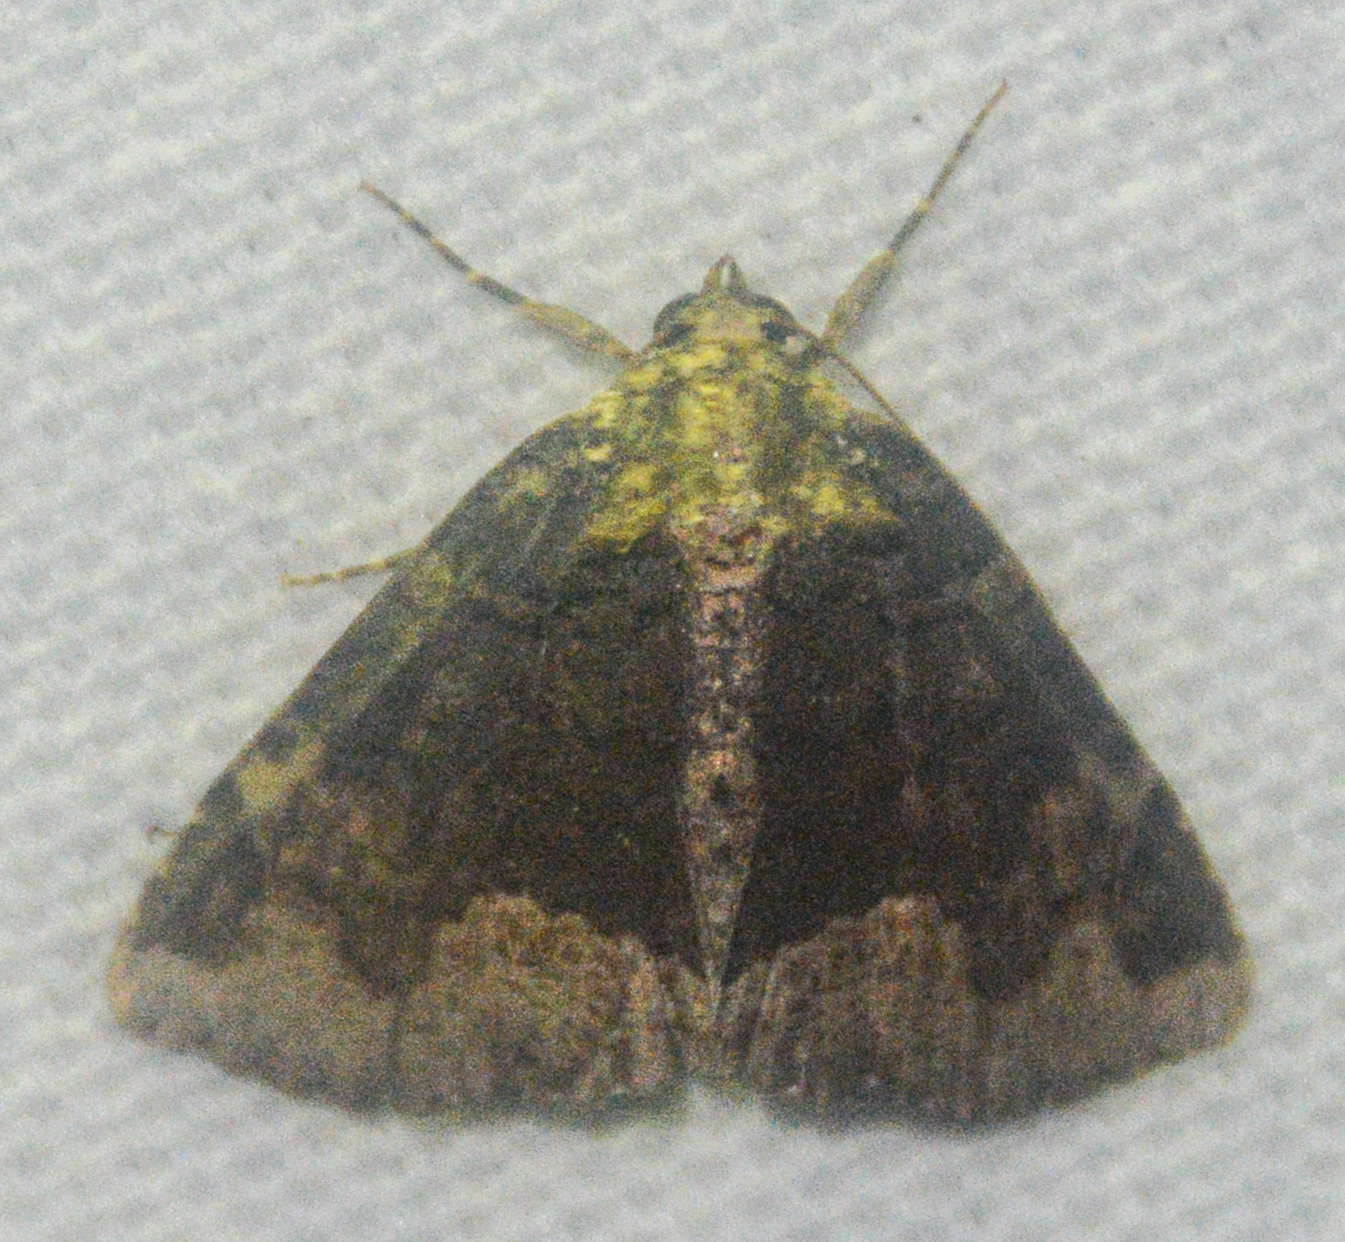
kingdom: Animalia
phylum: Arthropoda
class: Insecta
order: Lepidoptera
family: Erebidae
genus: Zale
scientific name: Zale horrida
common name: Horrid zale moth
